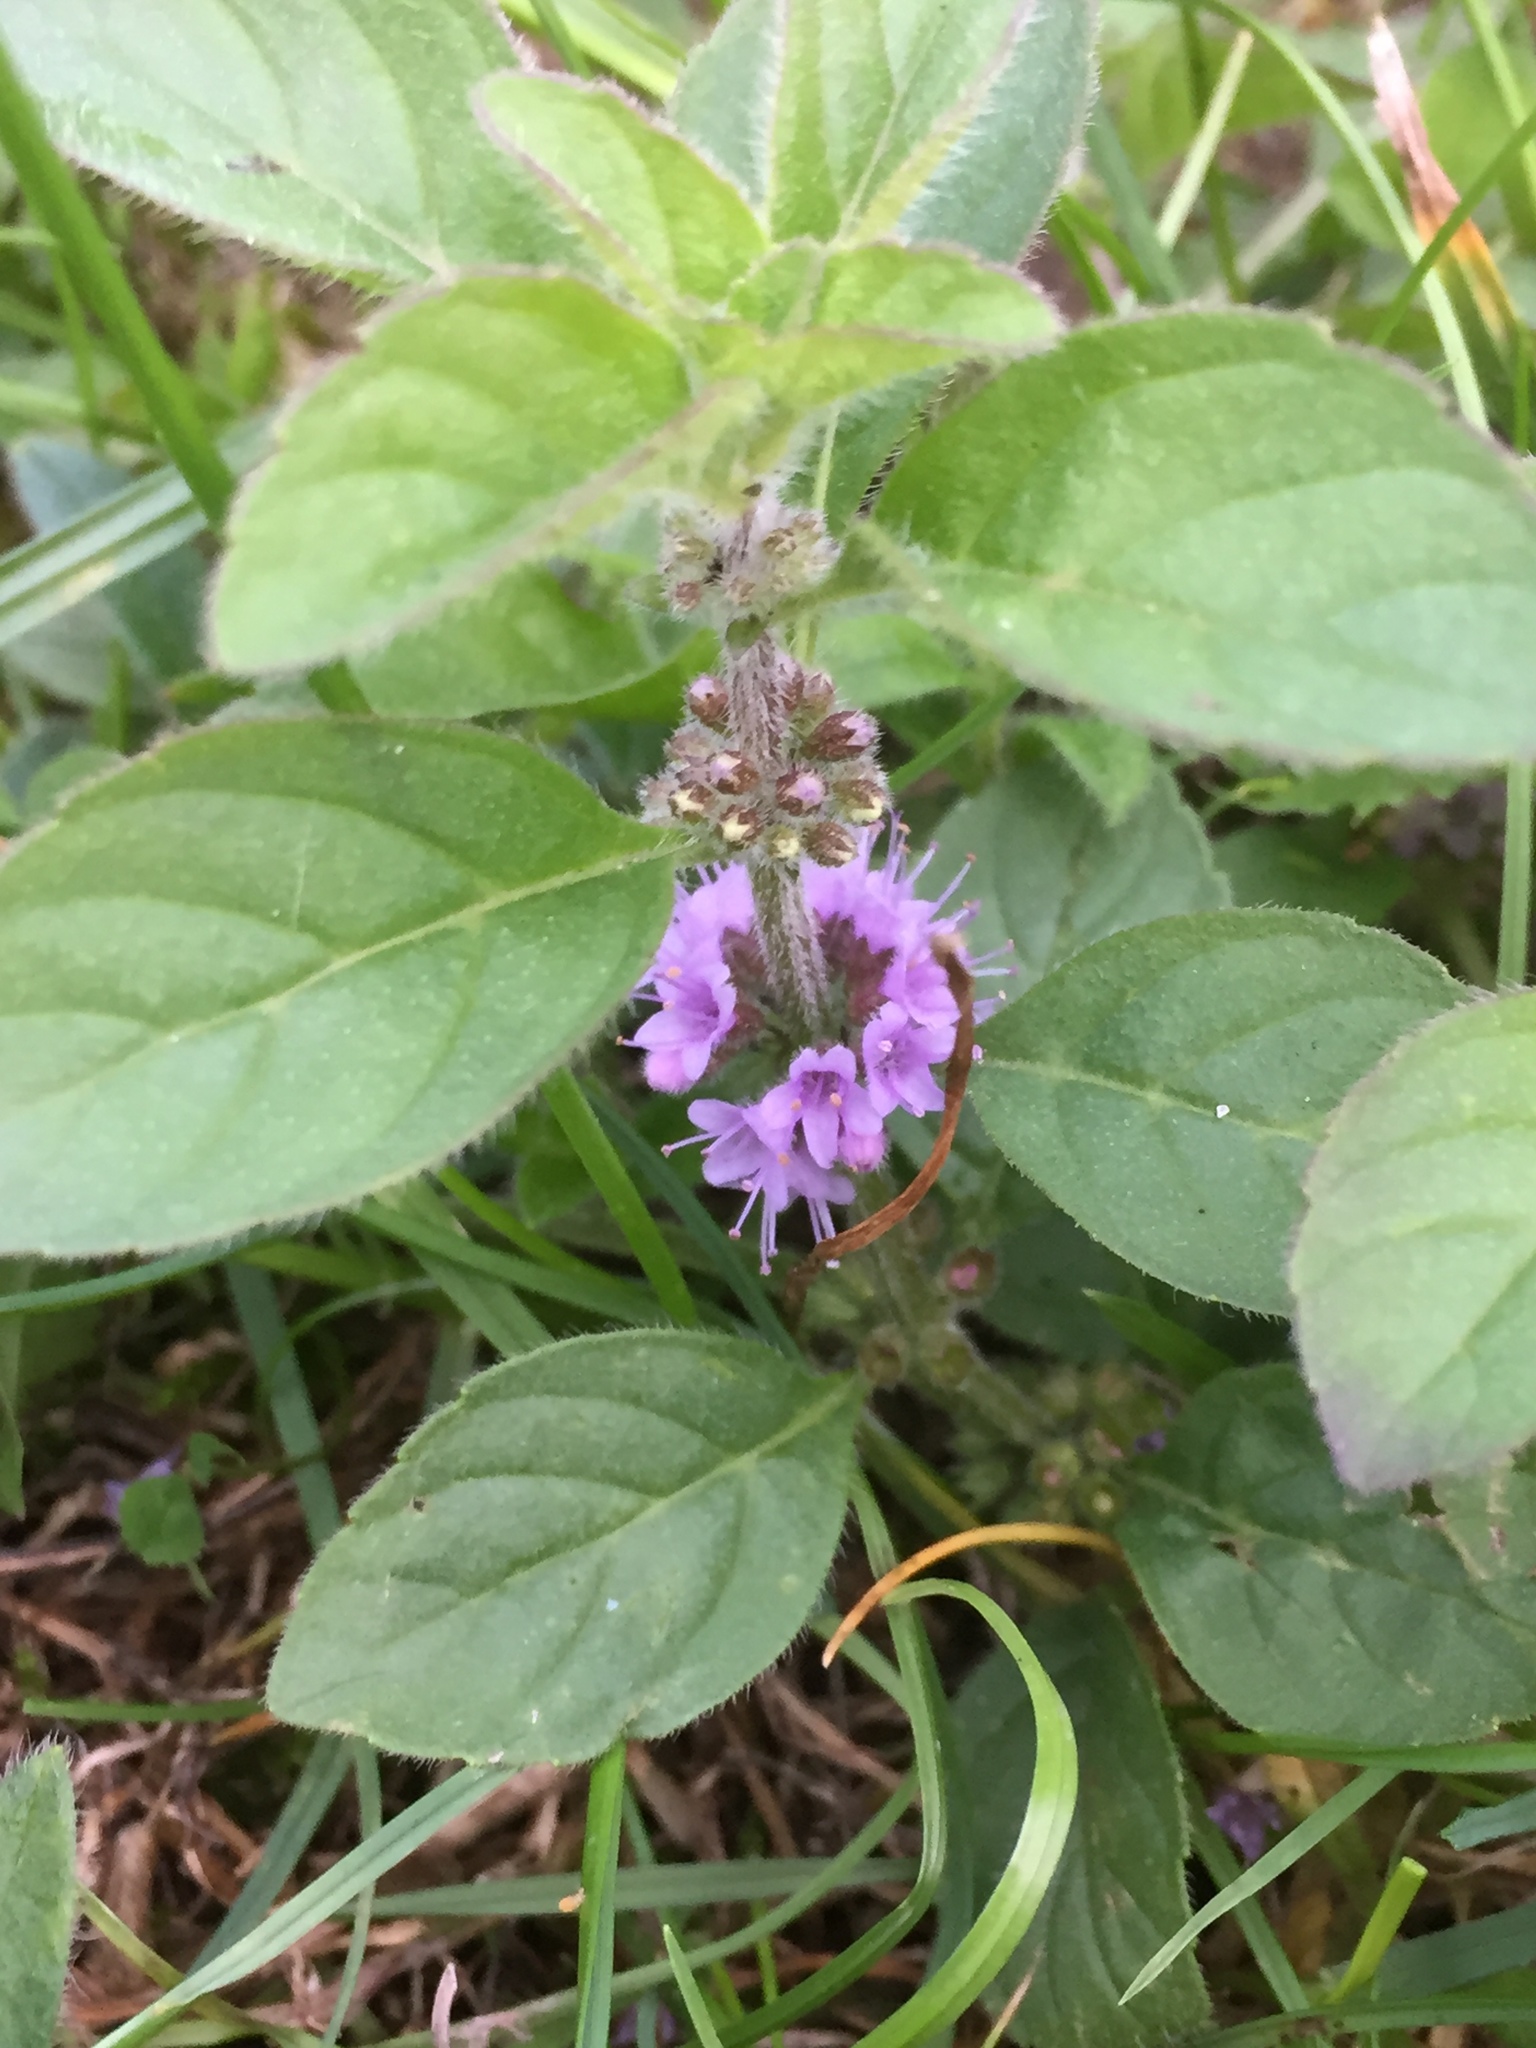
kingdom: Plantae
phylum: Tracheophyta
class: Magnoliopsida
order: Lamiales
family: Lamiaceae
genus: Mentha
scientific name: Mentha arvensis
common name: Corn mint
